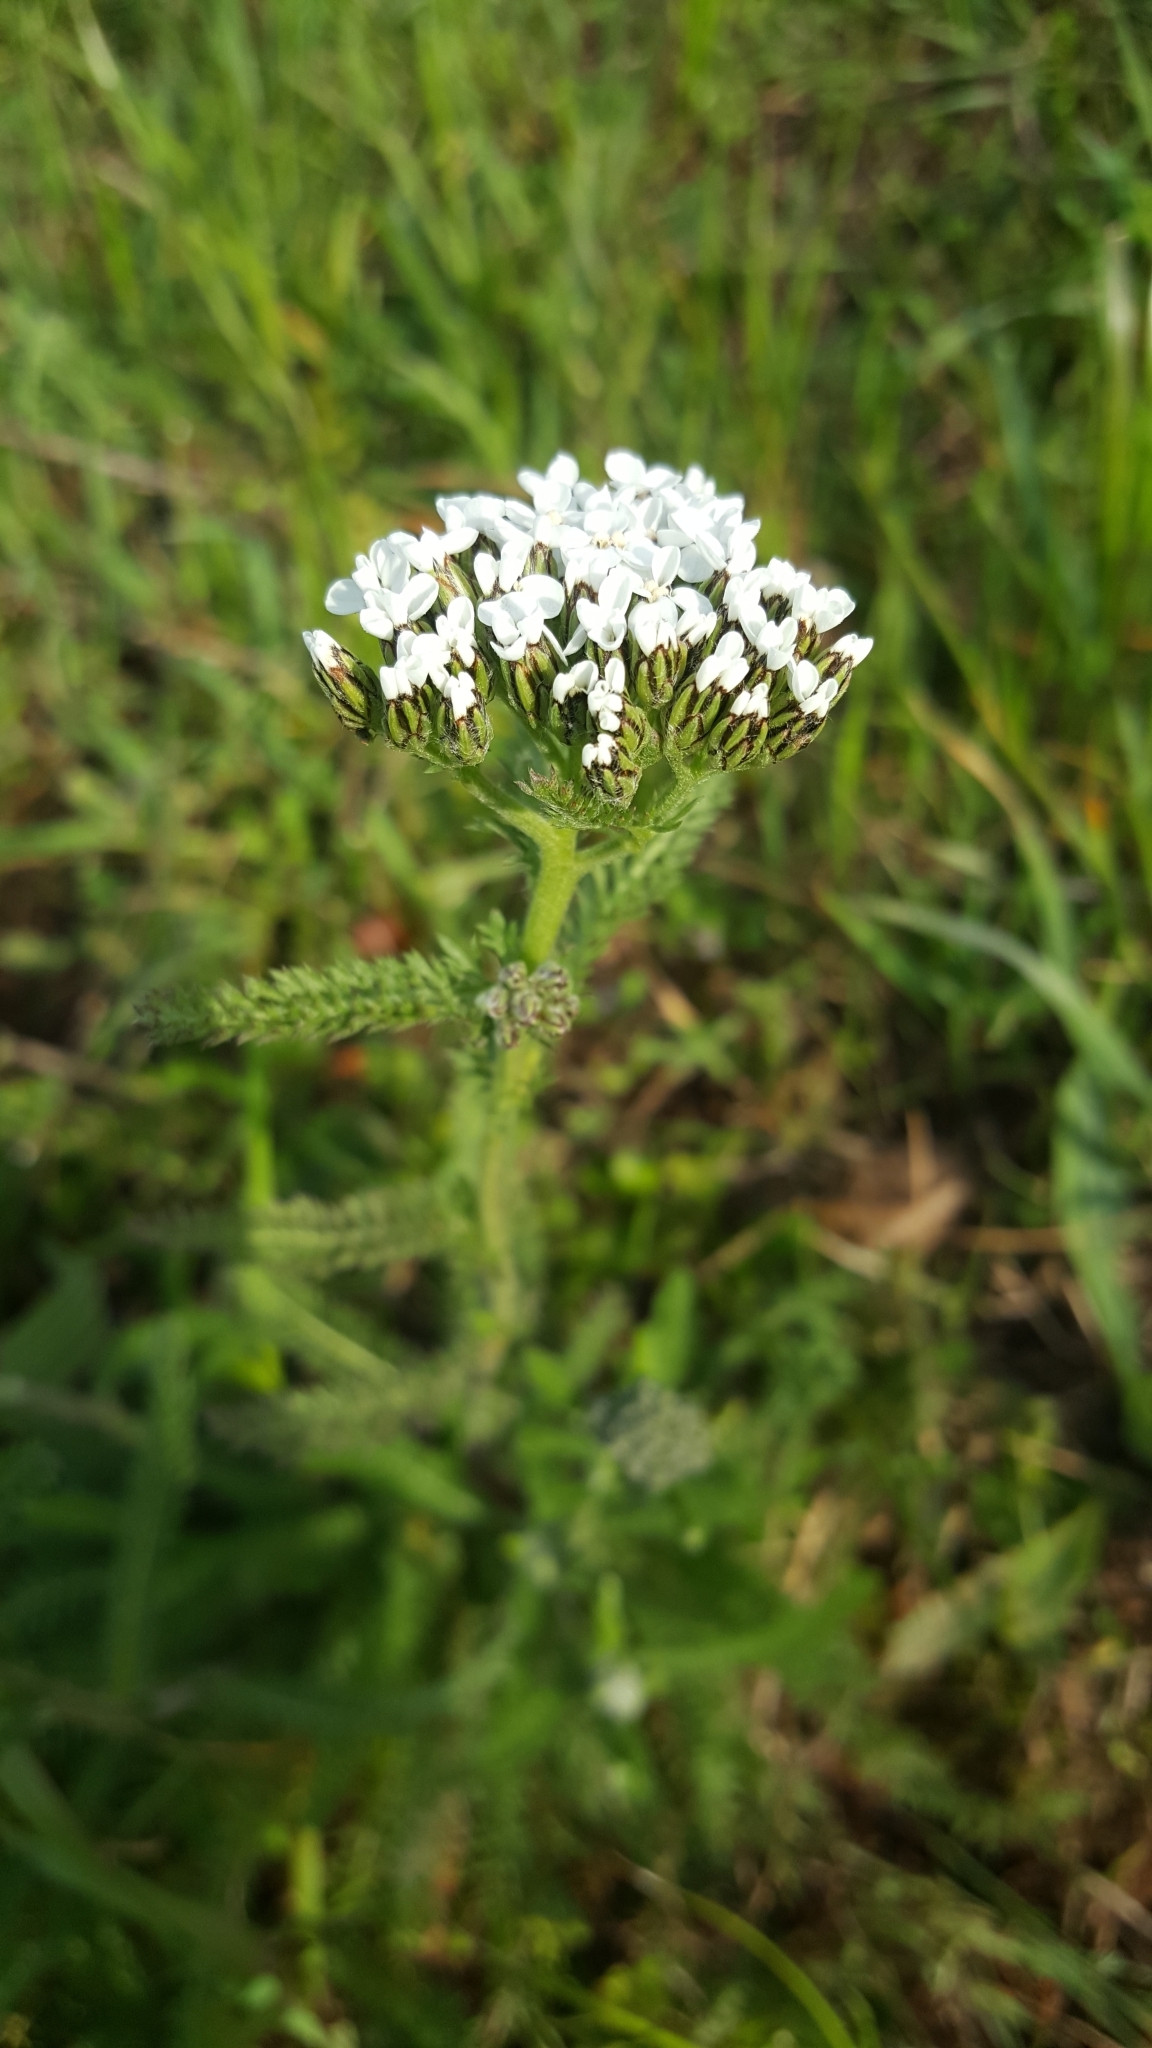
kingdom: Plantae
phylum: Tracheophyta
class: Magnoliopsida
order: Asterales
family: Asteraceae
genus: Achillea
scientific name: Achillea millefolium
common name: Yarrow
